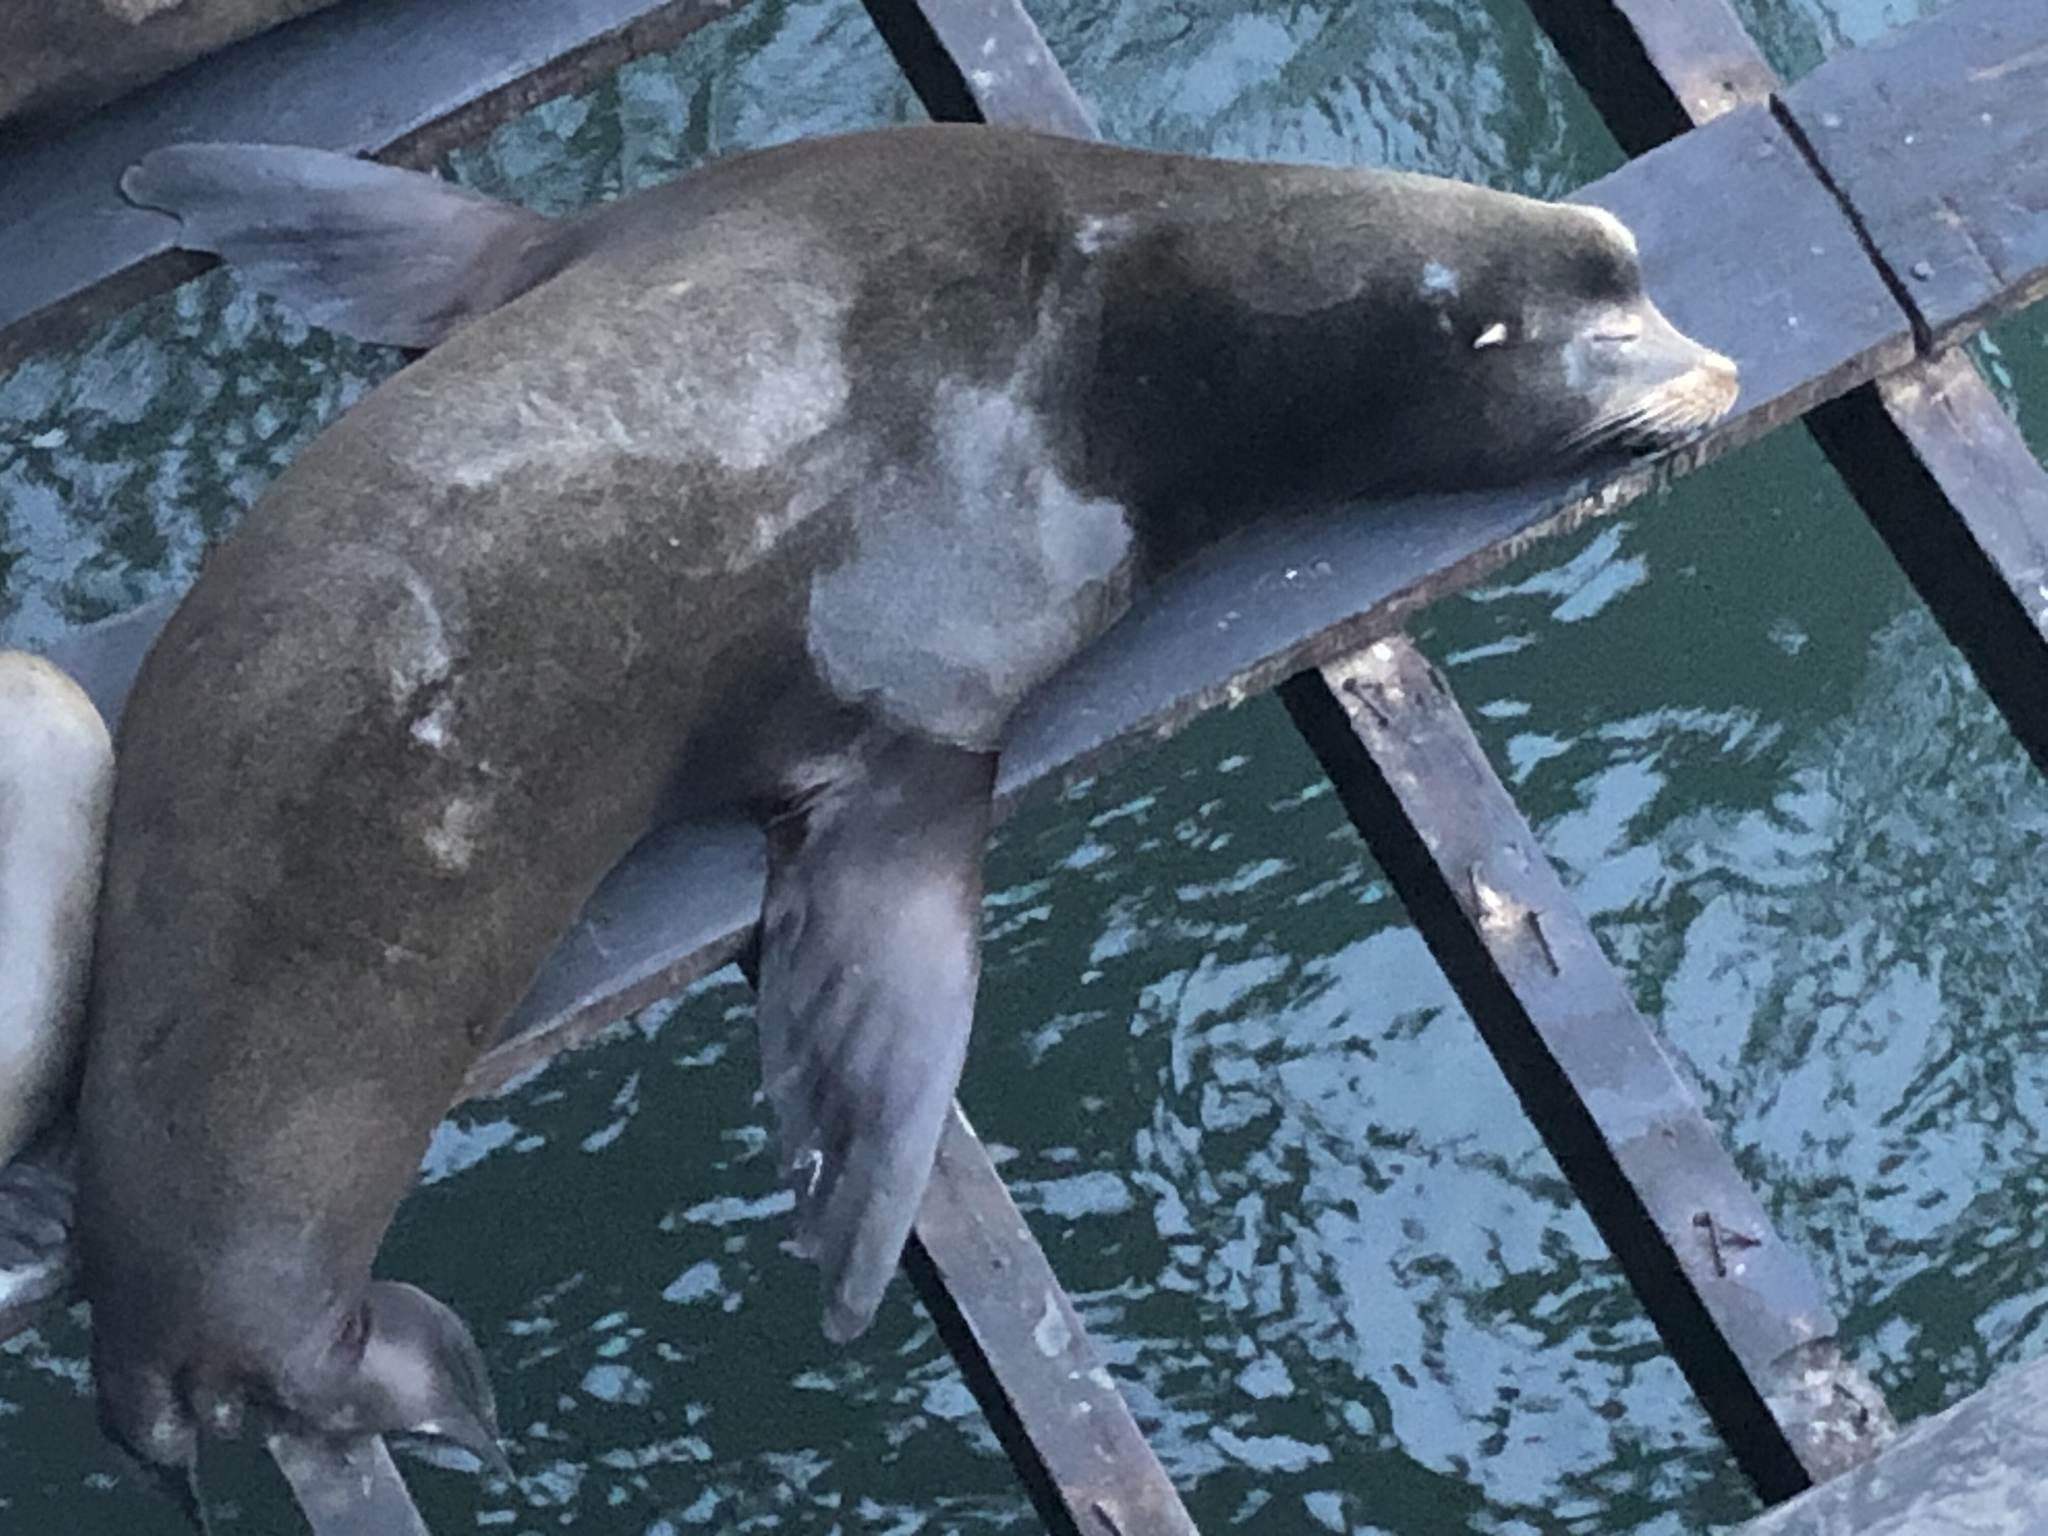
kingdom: Animalia
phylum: Chordata
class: Mammalia
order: Carnivora
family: Otariidae
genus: Zalophus
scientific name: Zalophus californianus
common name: California sea lion
